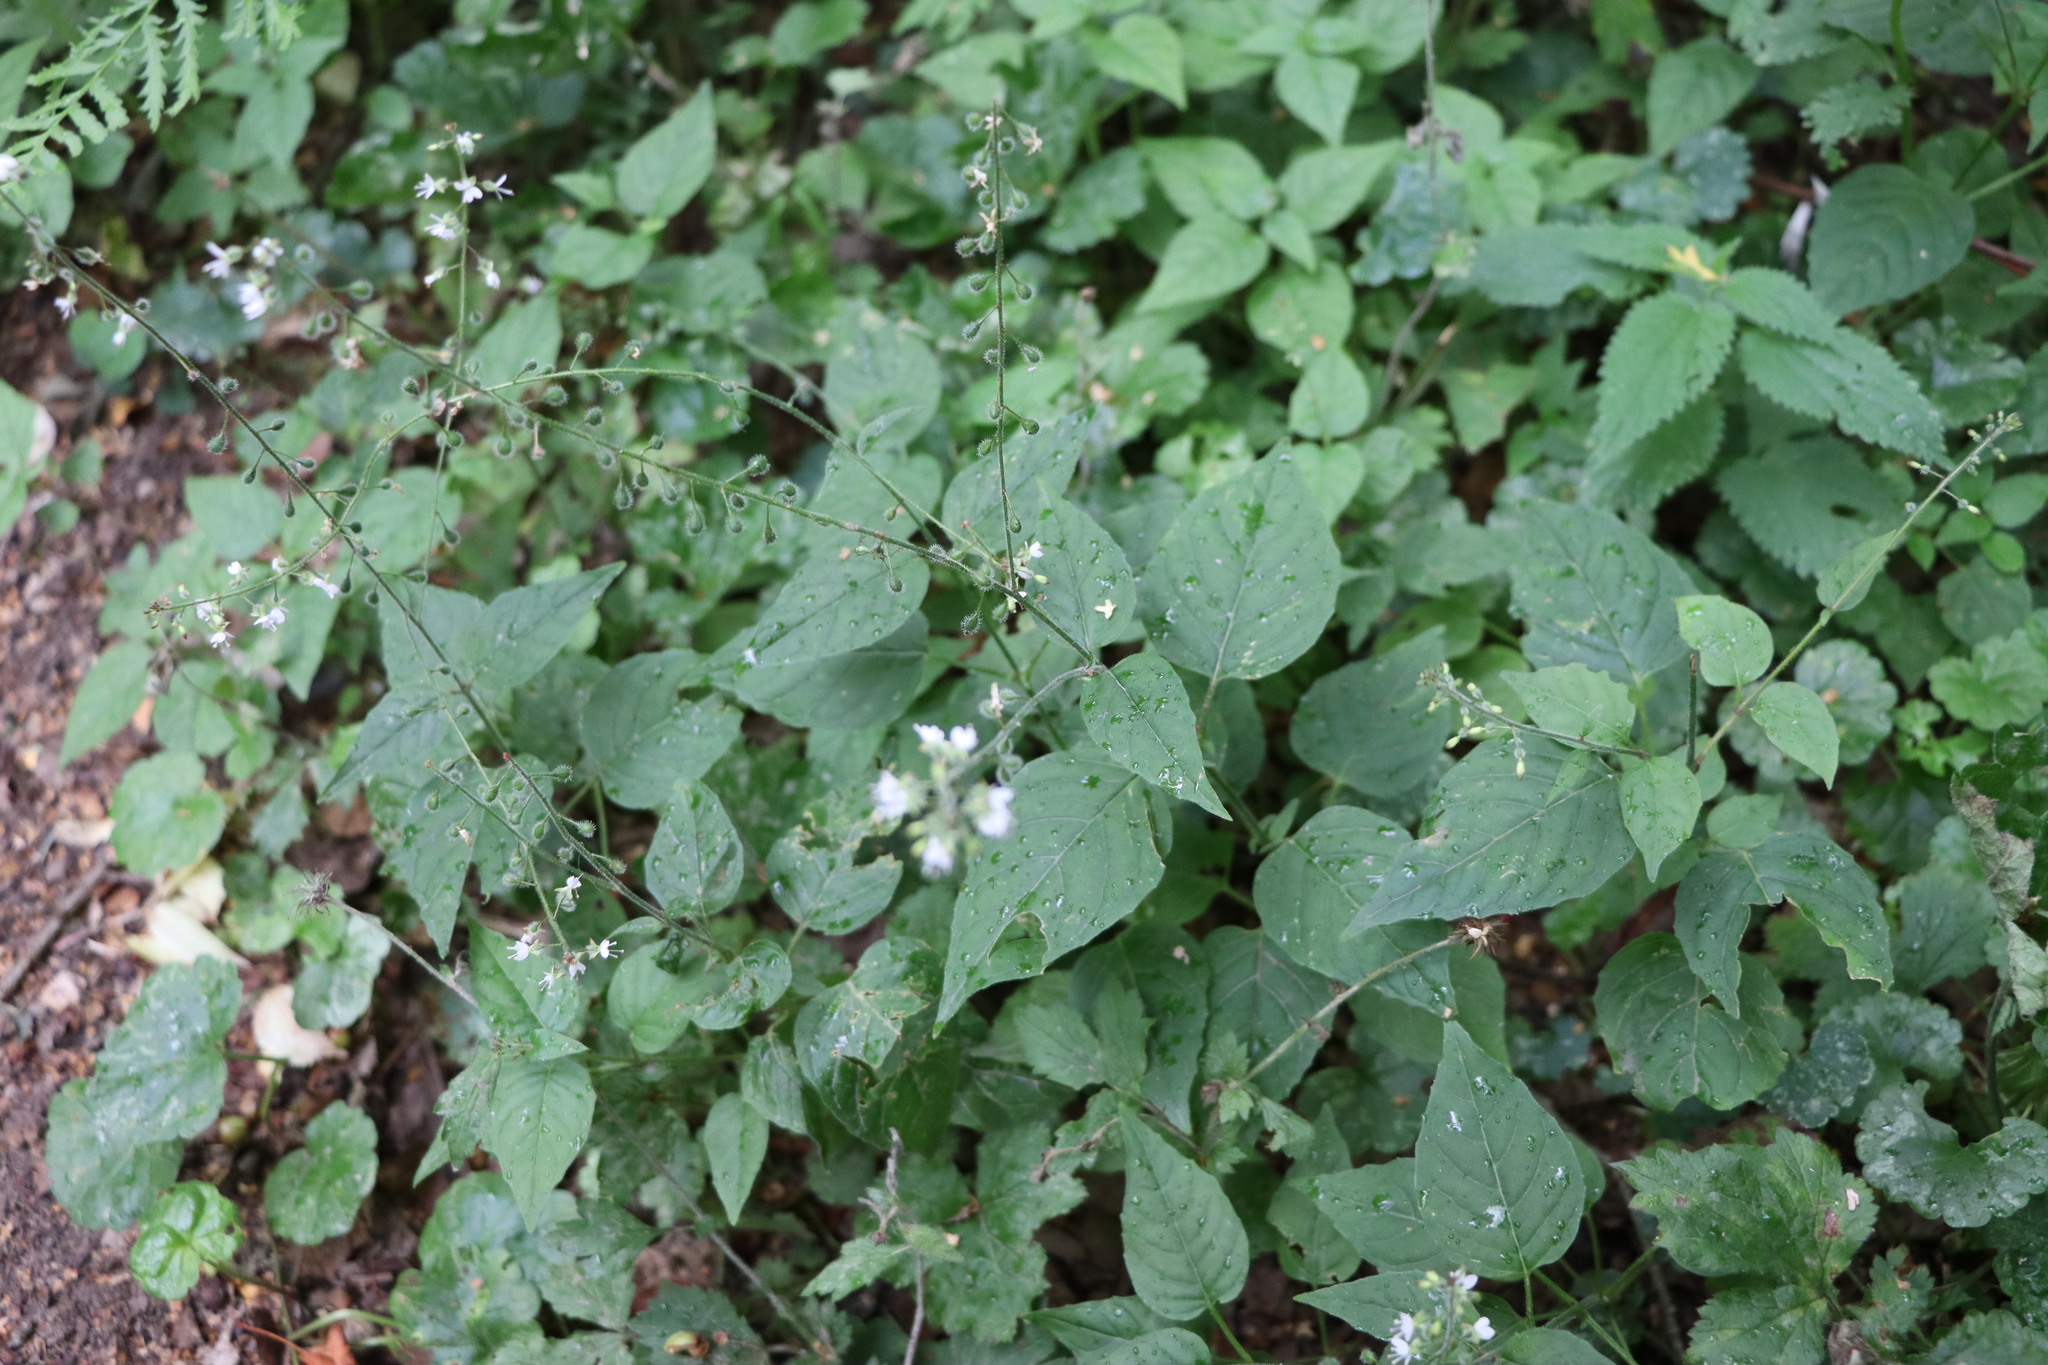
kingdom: Plantae
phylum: Tracheophyta
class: Magnoliopsida
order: Myrtales
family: Onagraceae
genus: Circaea
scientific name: Circaea lutetiana
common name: Enchanter's-nightshade
